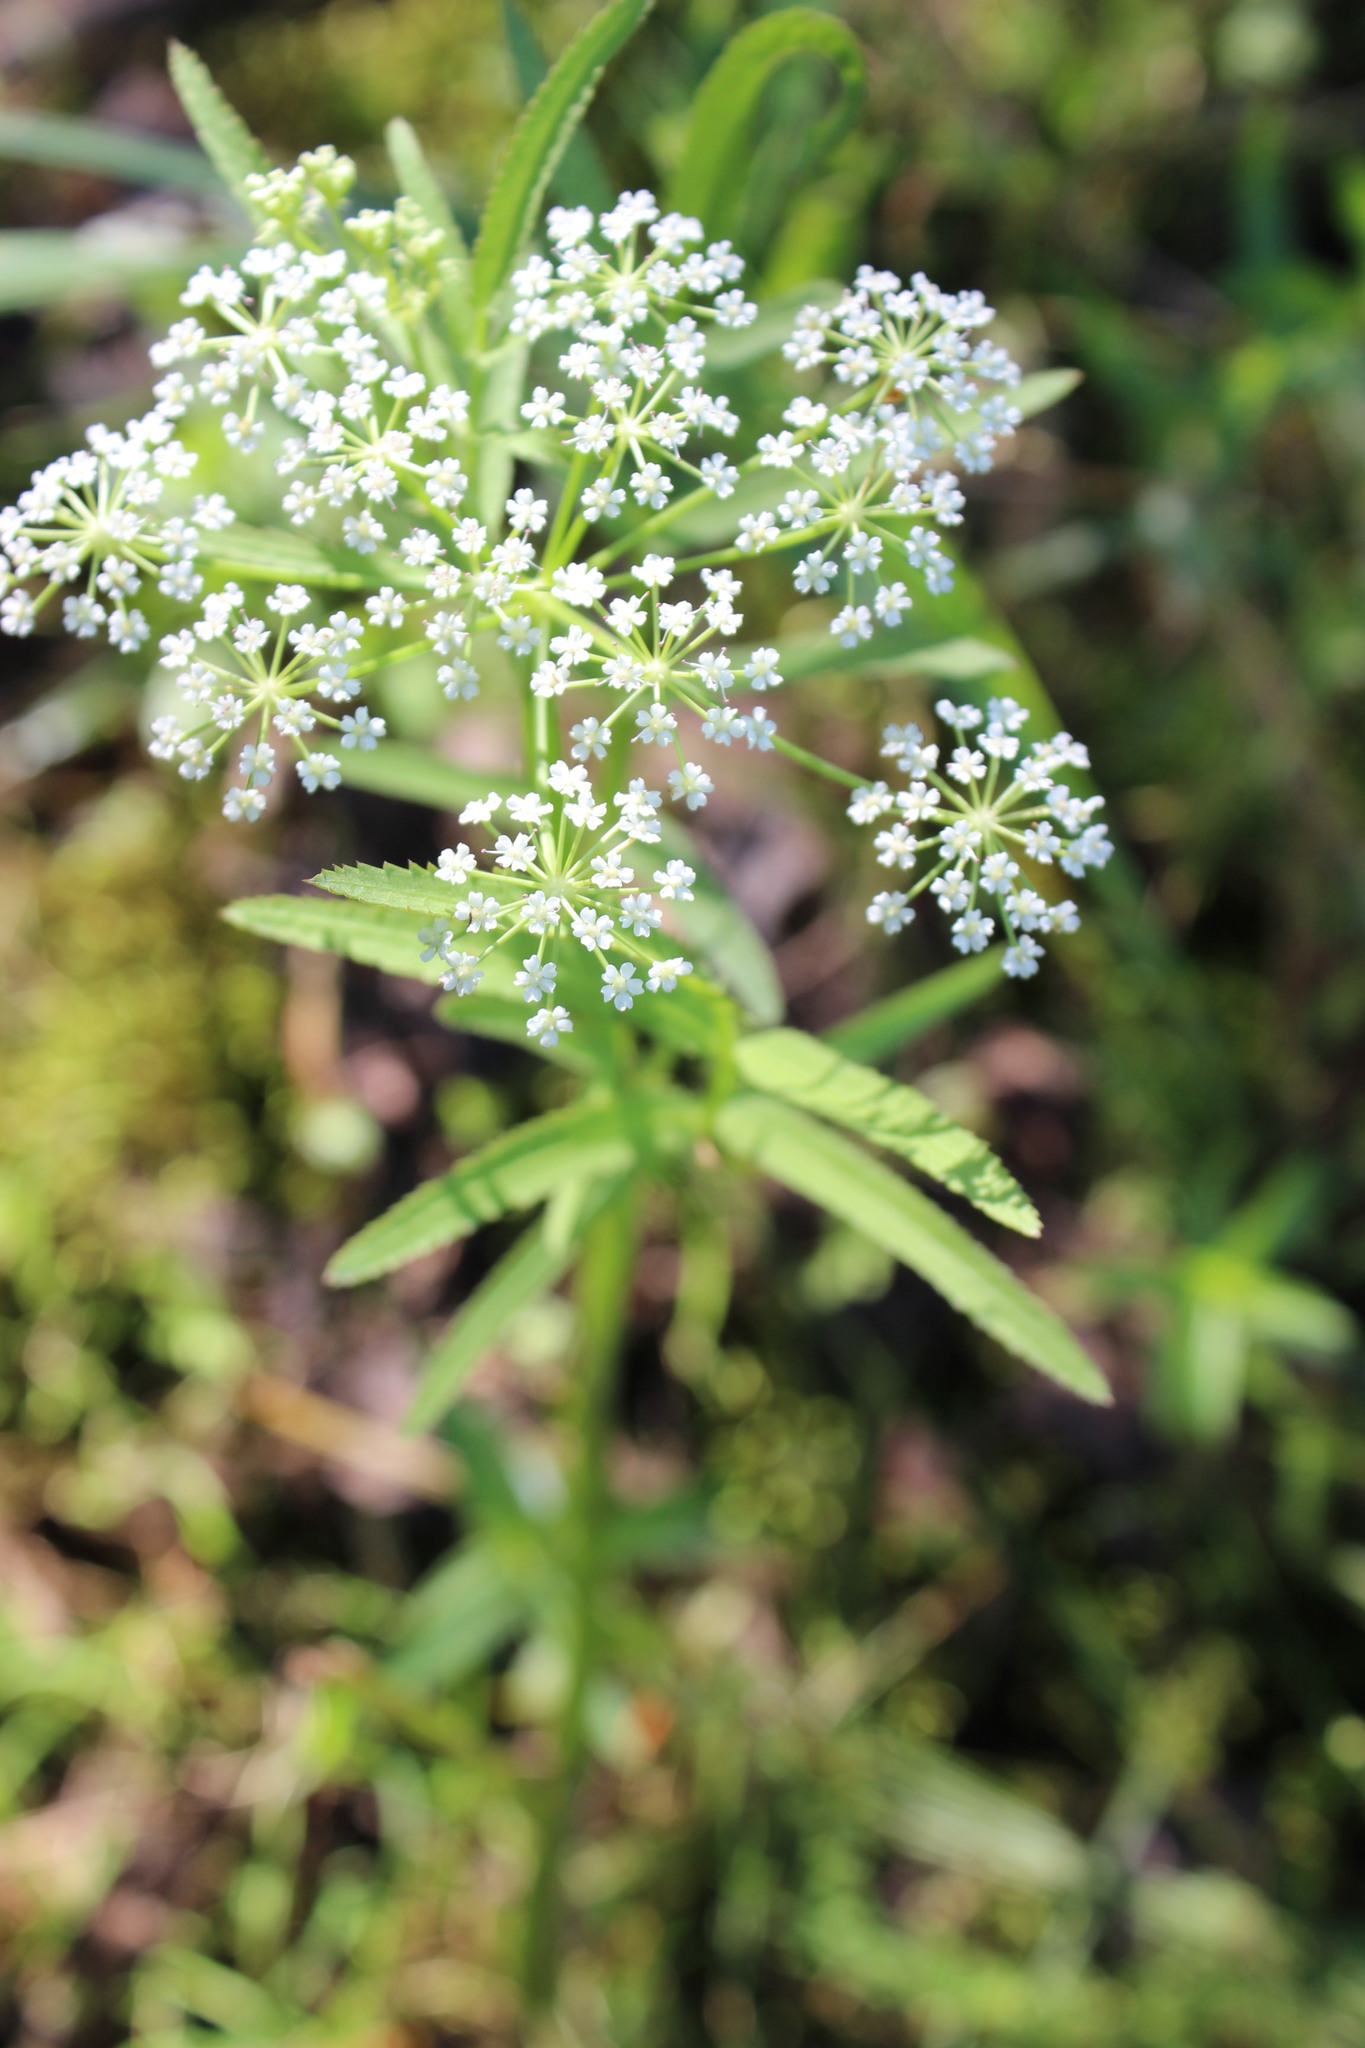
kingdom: Plantae
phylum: Tracheophyta
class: Magnoliopsida
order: Apiales
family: Apiaceae
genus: Sium
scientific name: Sium latifolium
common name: Greater water-parsnip
